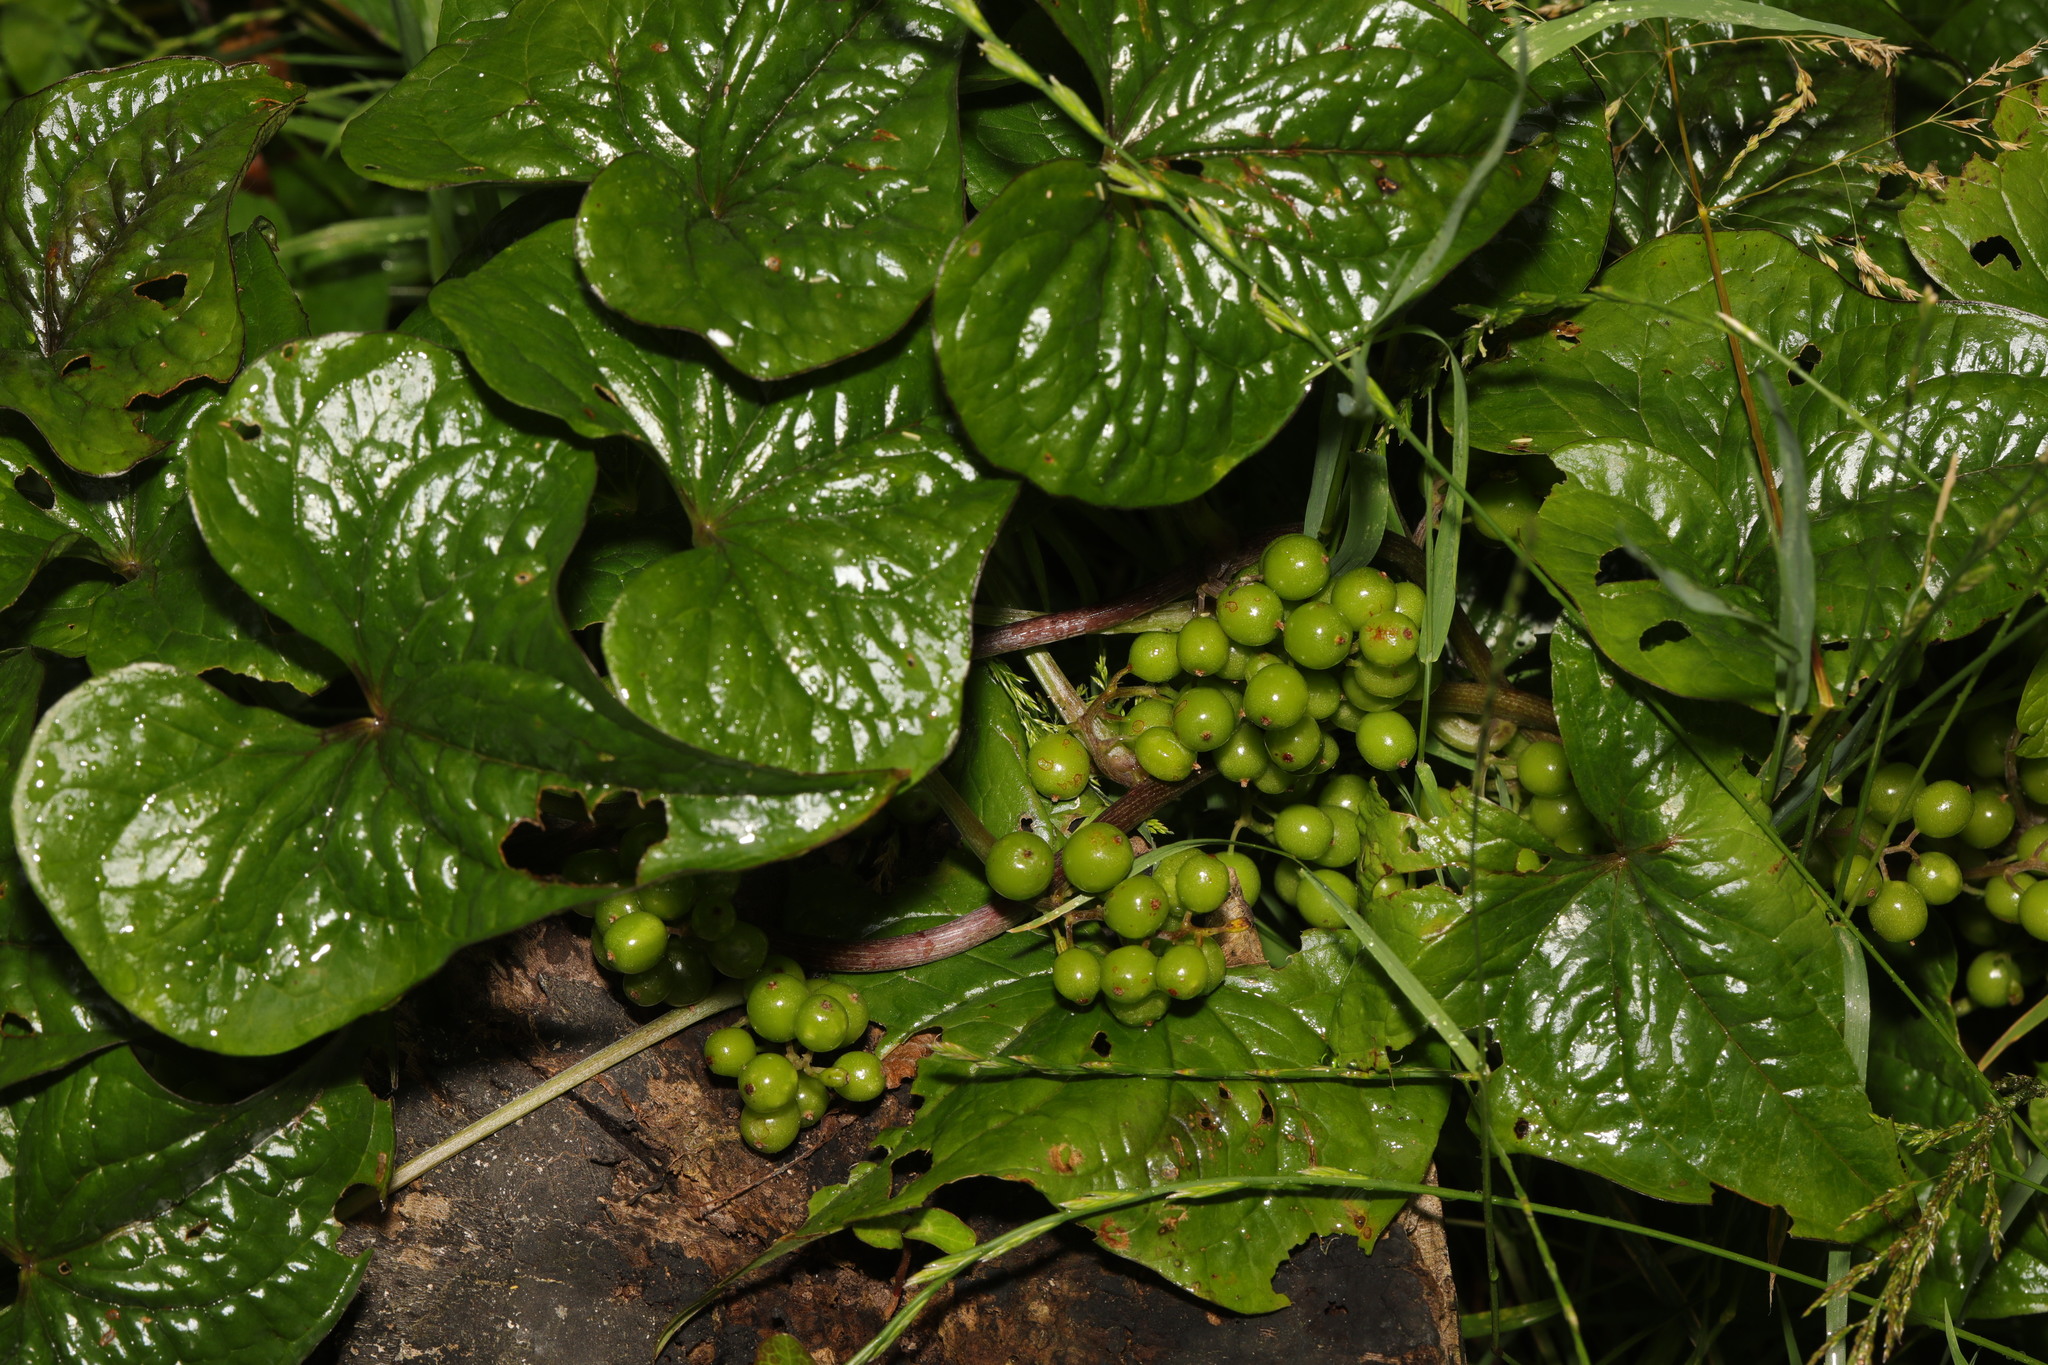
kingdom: Plantae
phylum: Tracheophyta
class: Liliopsida
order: Dioscoreales
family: Dioscoreaceae
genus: Dioscorea
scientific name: Dioscorea communis
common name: Black-bindweed
